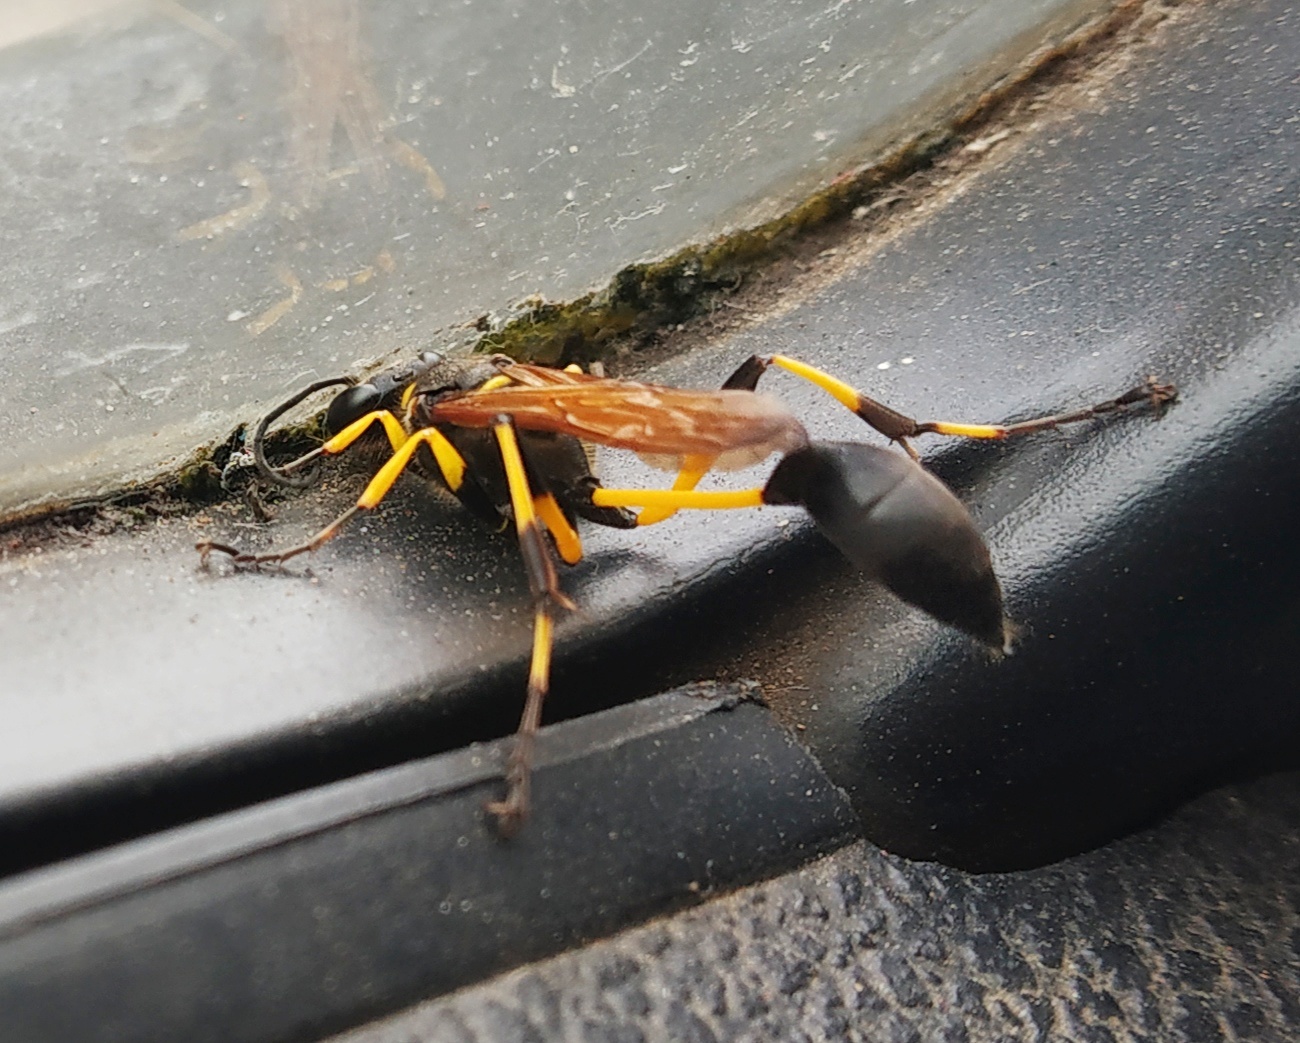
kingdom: Animalia
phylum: Arthropoda
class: Insecta
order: Hymenoptera
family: Sphecidae
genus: Sceliphron
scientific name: Sceliphron madraspatanum
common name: Mud dauber
